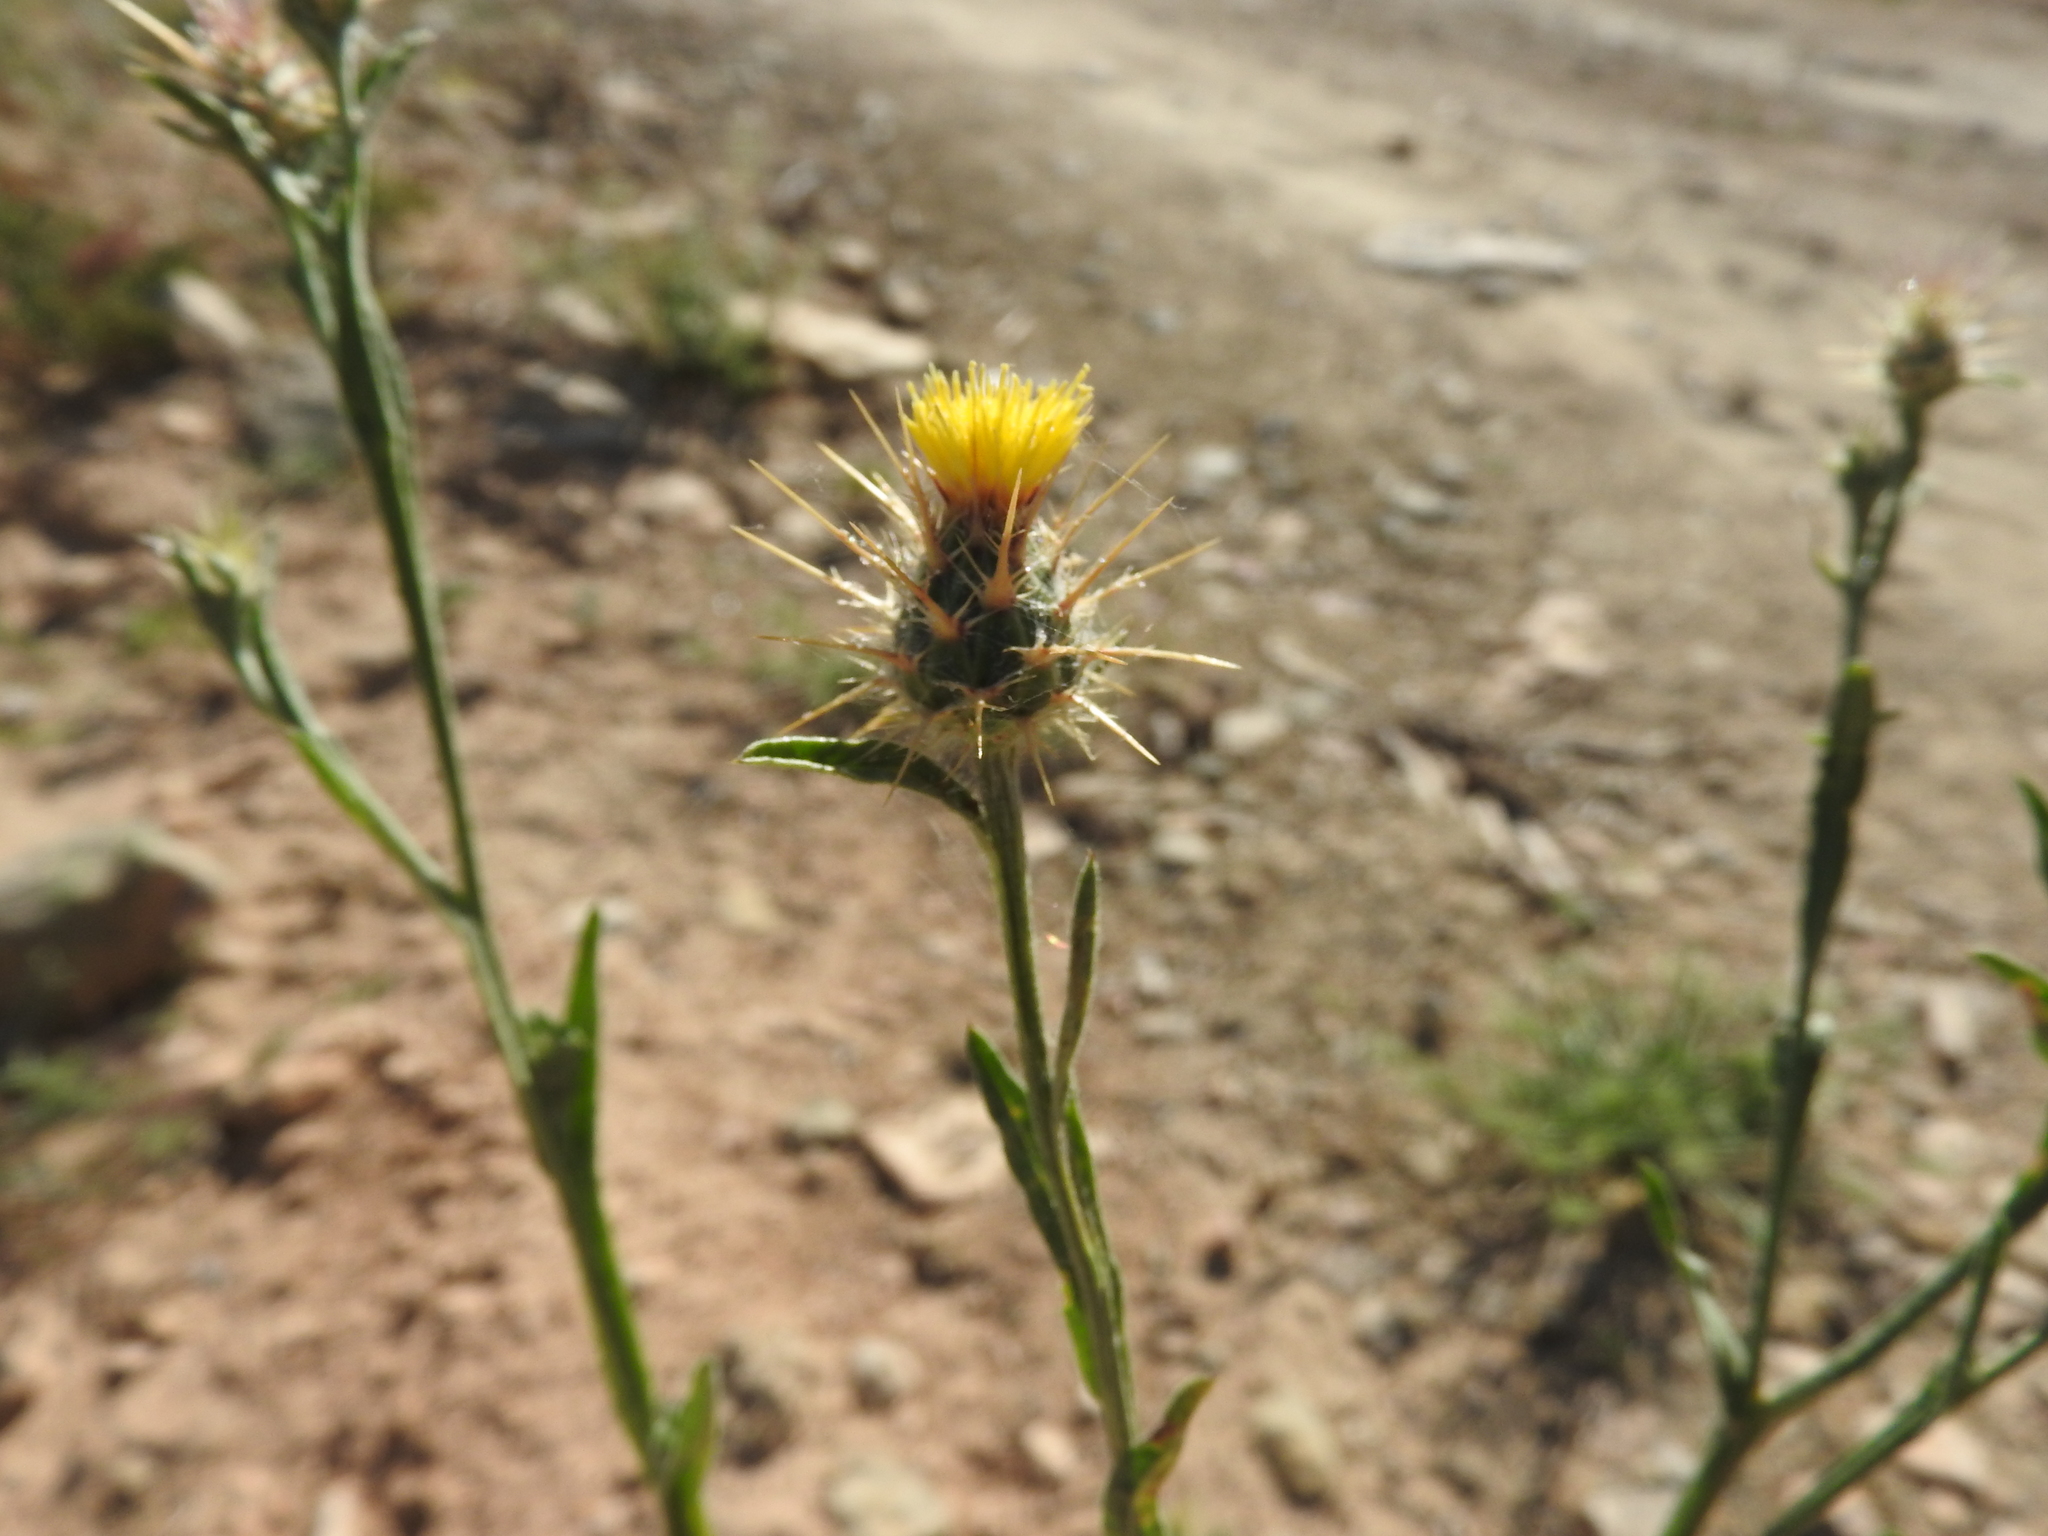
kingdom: Plantae
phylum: Tracheophyta
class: Magnoliopsida
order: Asterales
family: Asteraceae
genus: Centaurea
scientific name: Centaurea melitensis
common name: Maltese star-thistle
